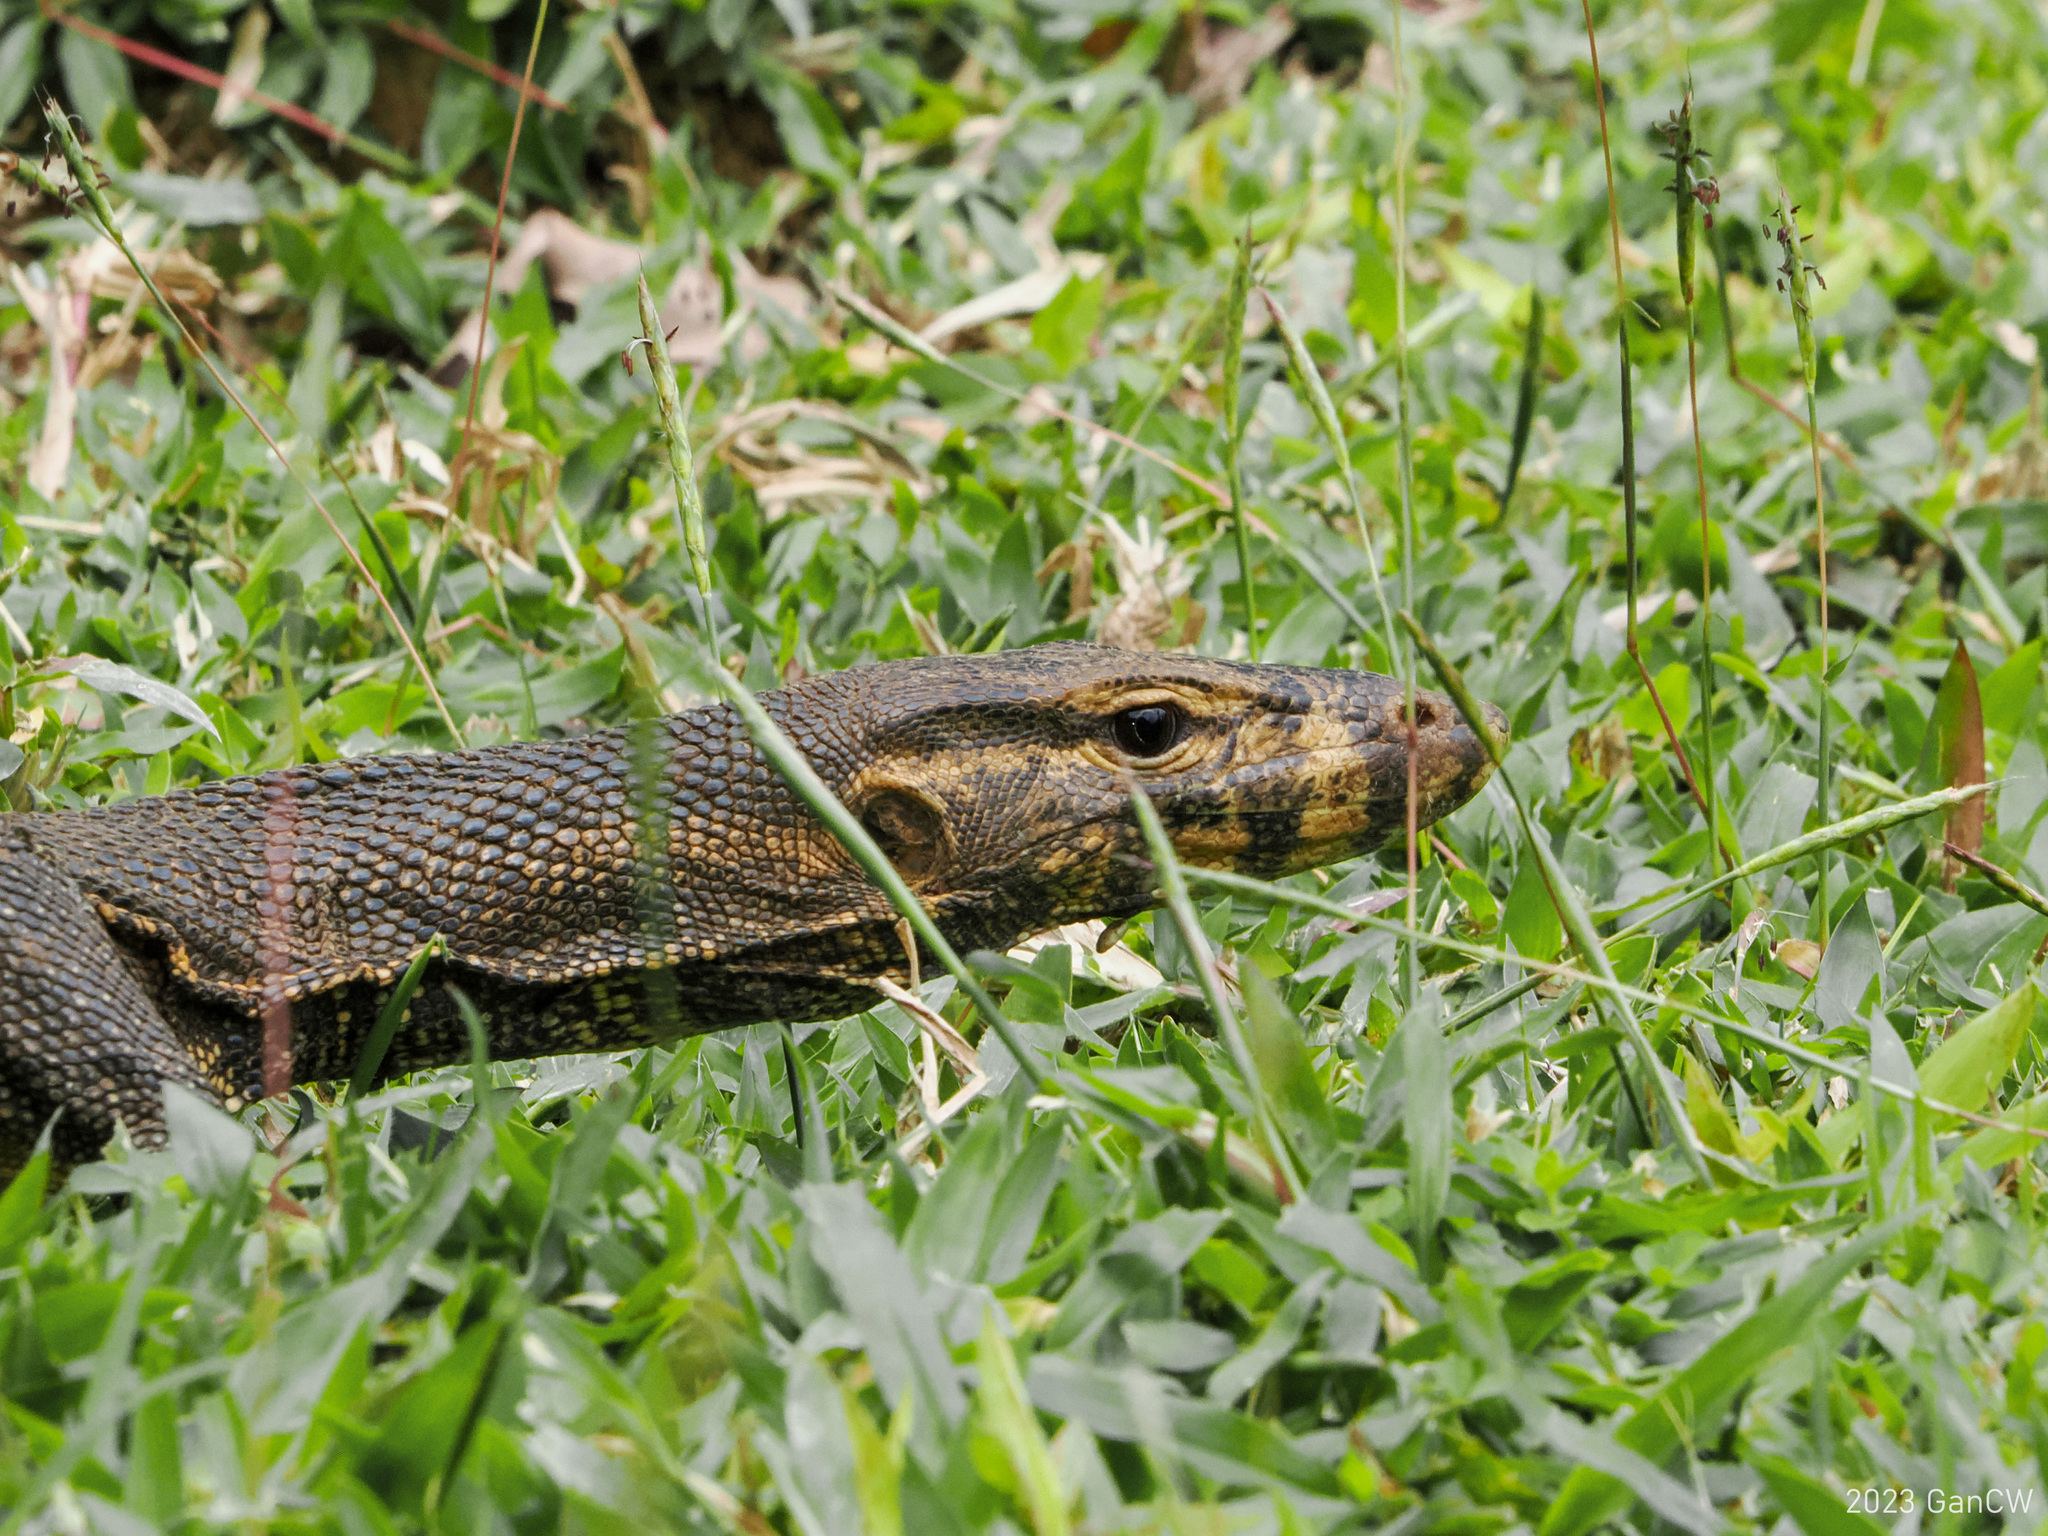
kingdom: Animalia
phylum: Chordata
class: Squamata
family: Varanidae
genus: Varanus
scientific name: Varanus togianus
